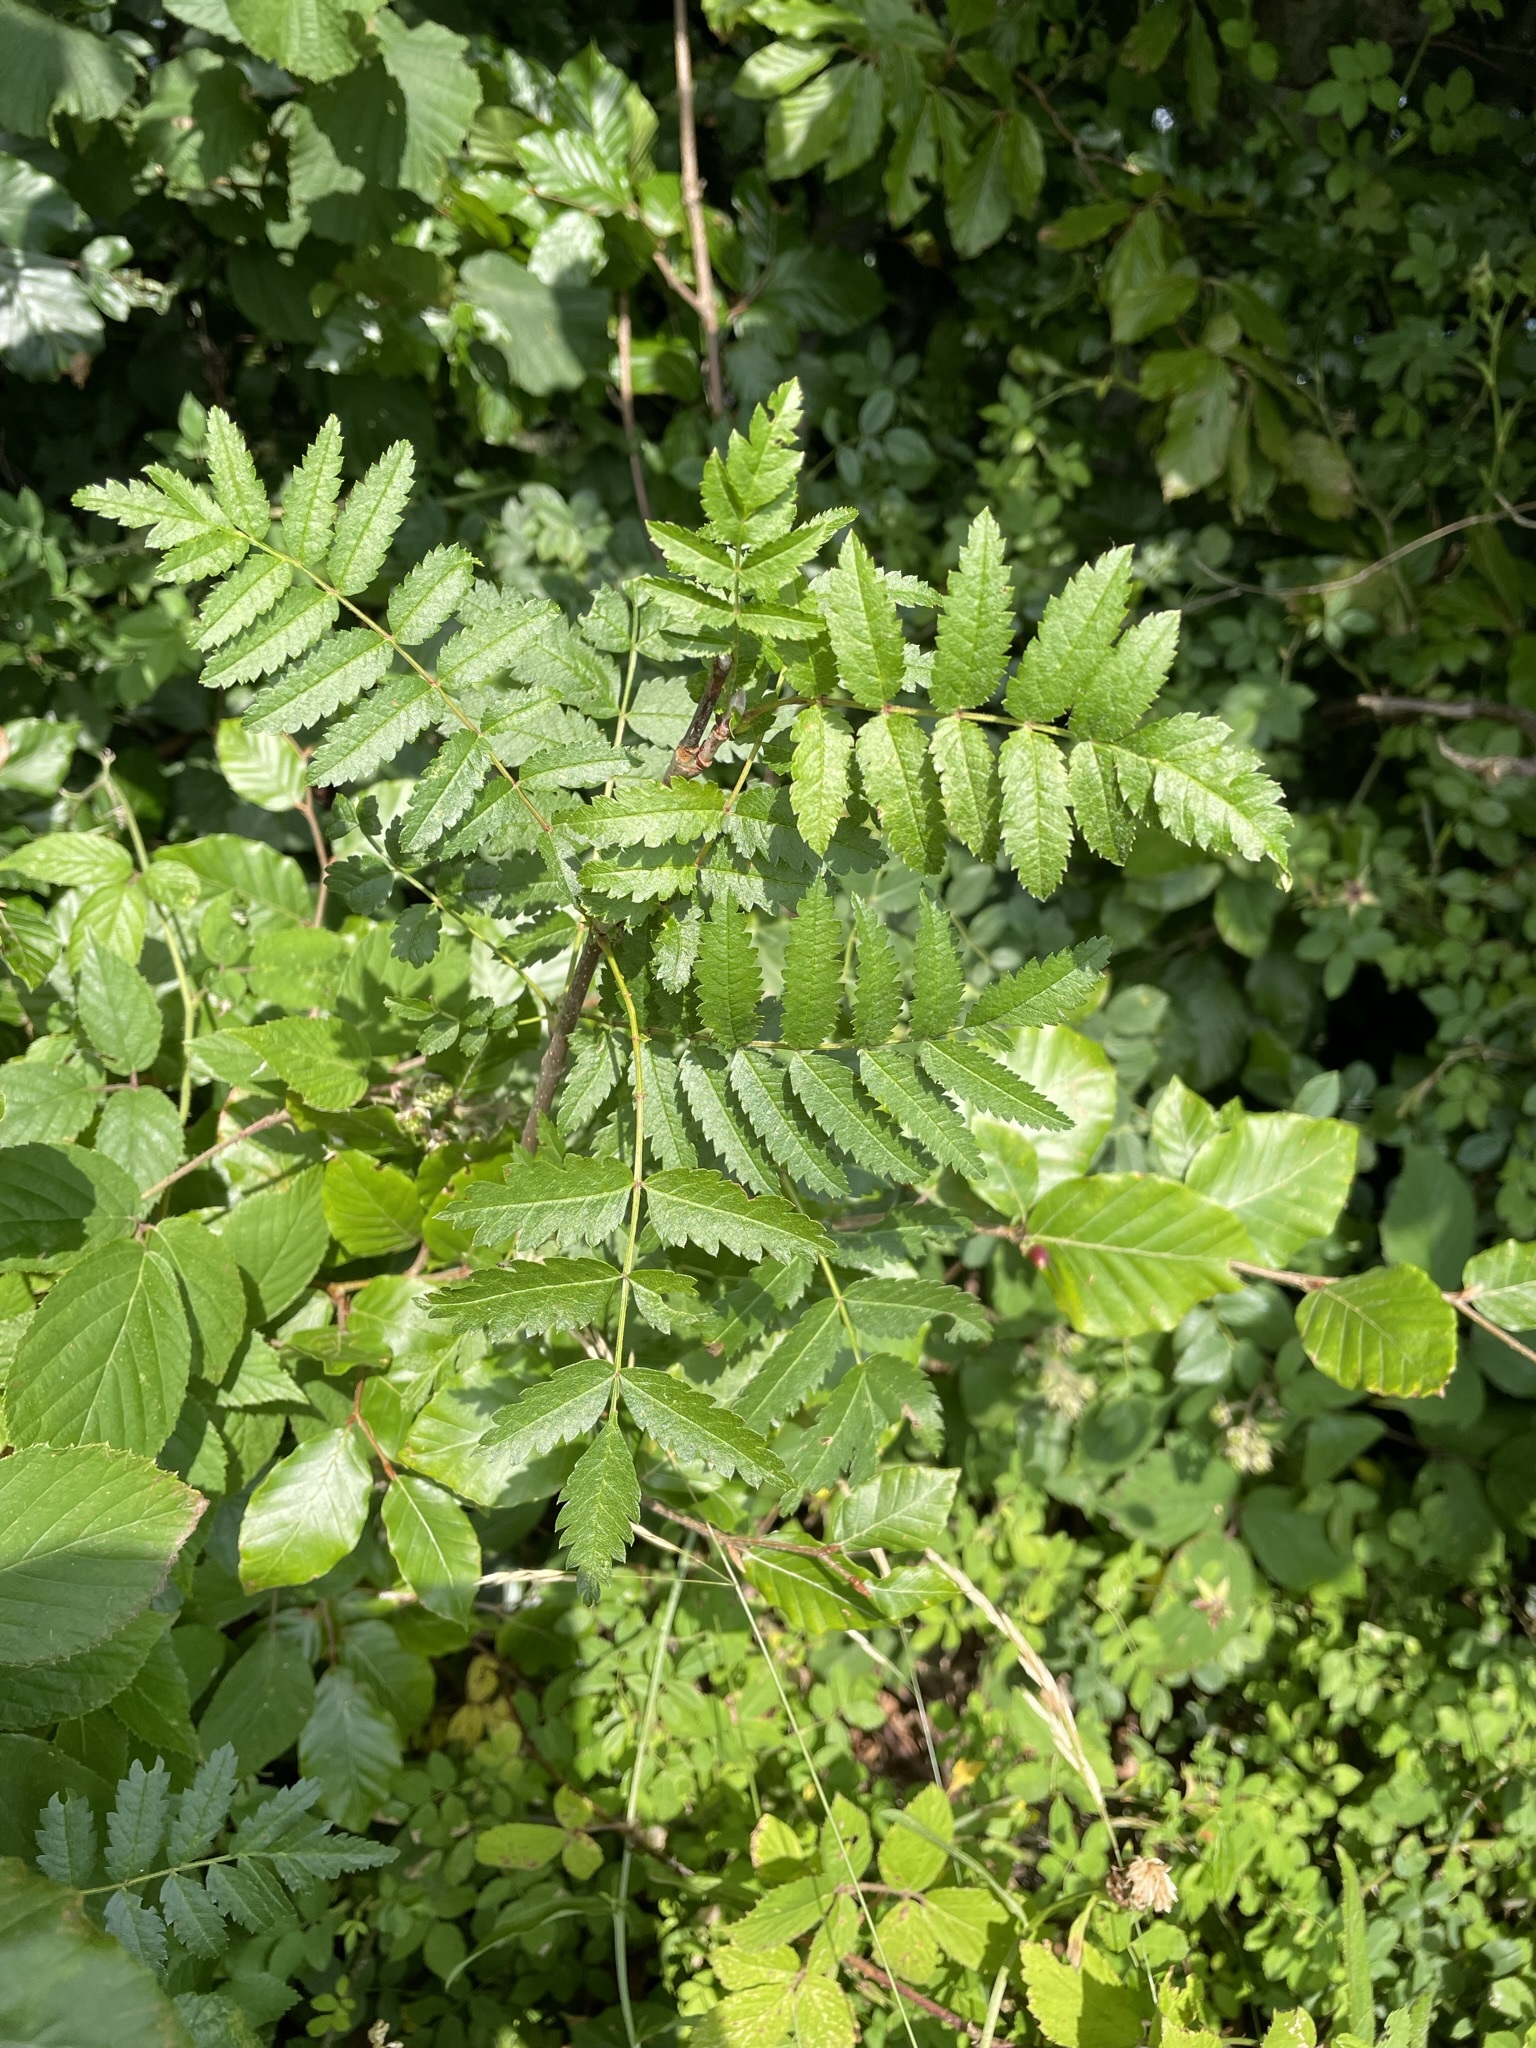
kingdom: Plantae
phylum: Tracheophyta
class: Magnoliopsida
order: Rosales
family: Rosaceae
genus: Sorbus
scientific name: Sorbus aucuparia
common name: Rowan
